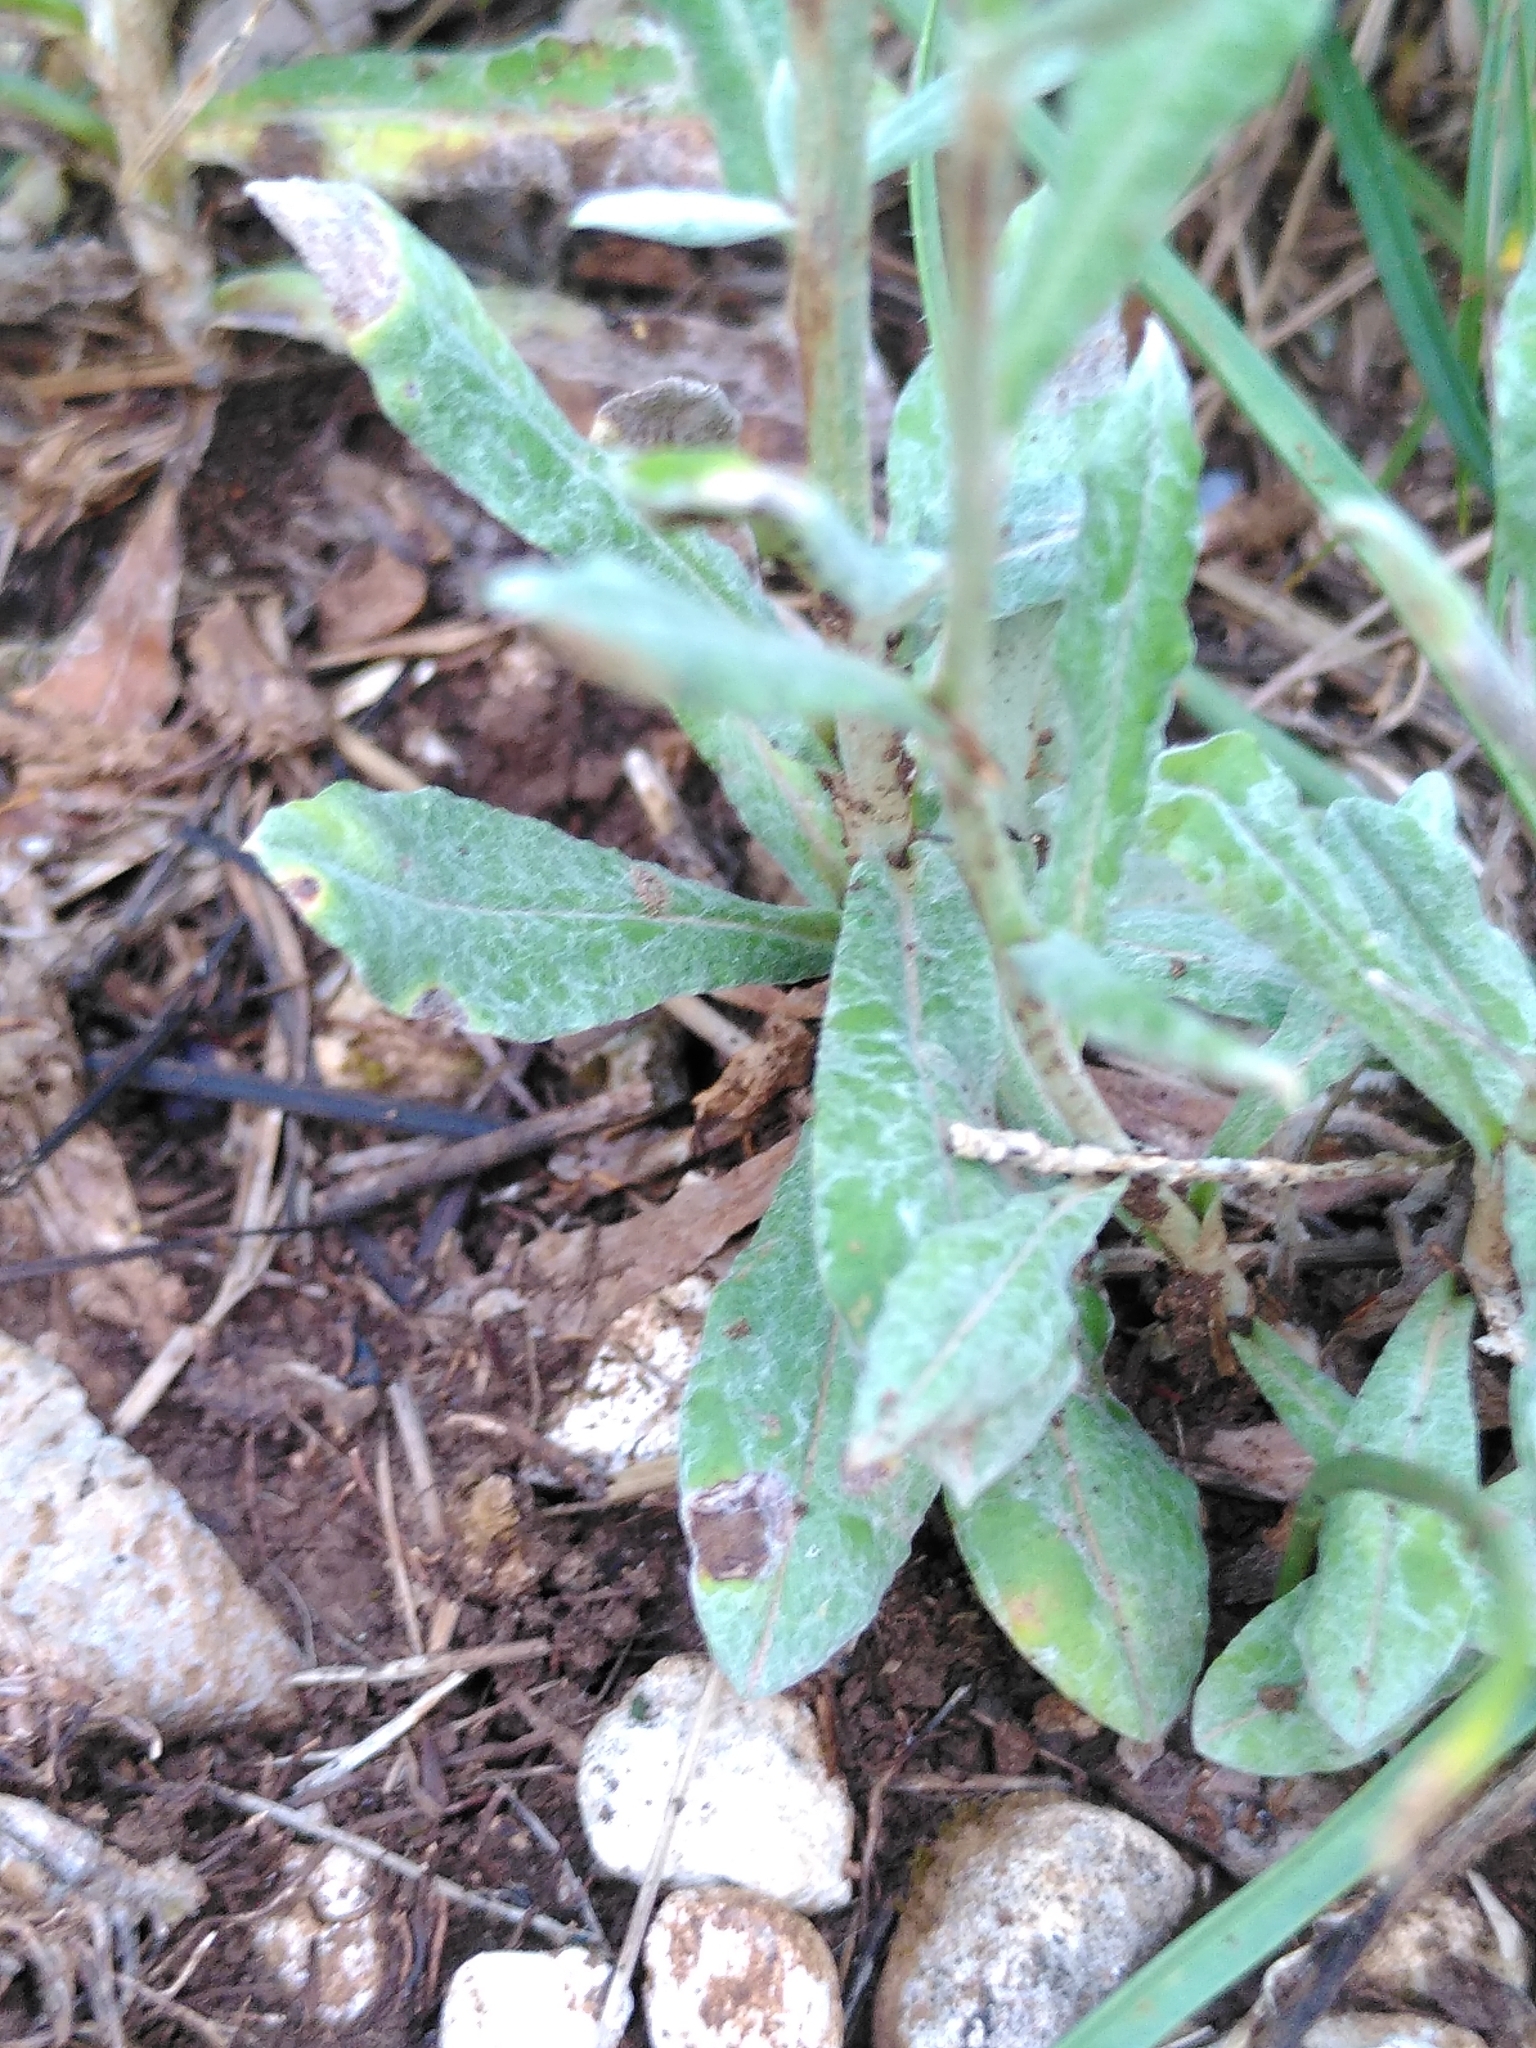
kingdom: Plantae
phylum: Tracheophyta
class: Magnoliopsida
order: Asterales
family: Asteraceae
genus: Xeranthemum
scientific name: Xeranthemum inapertum
